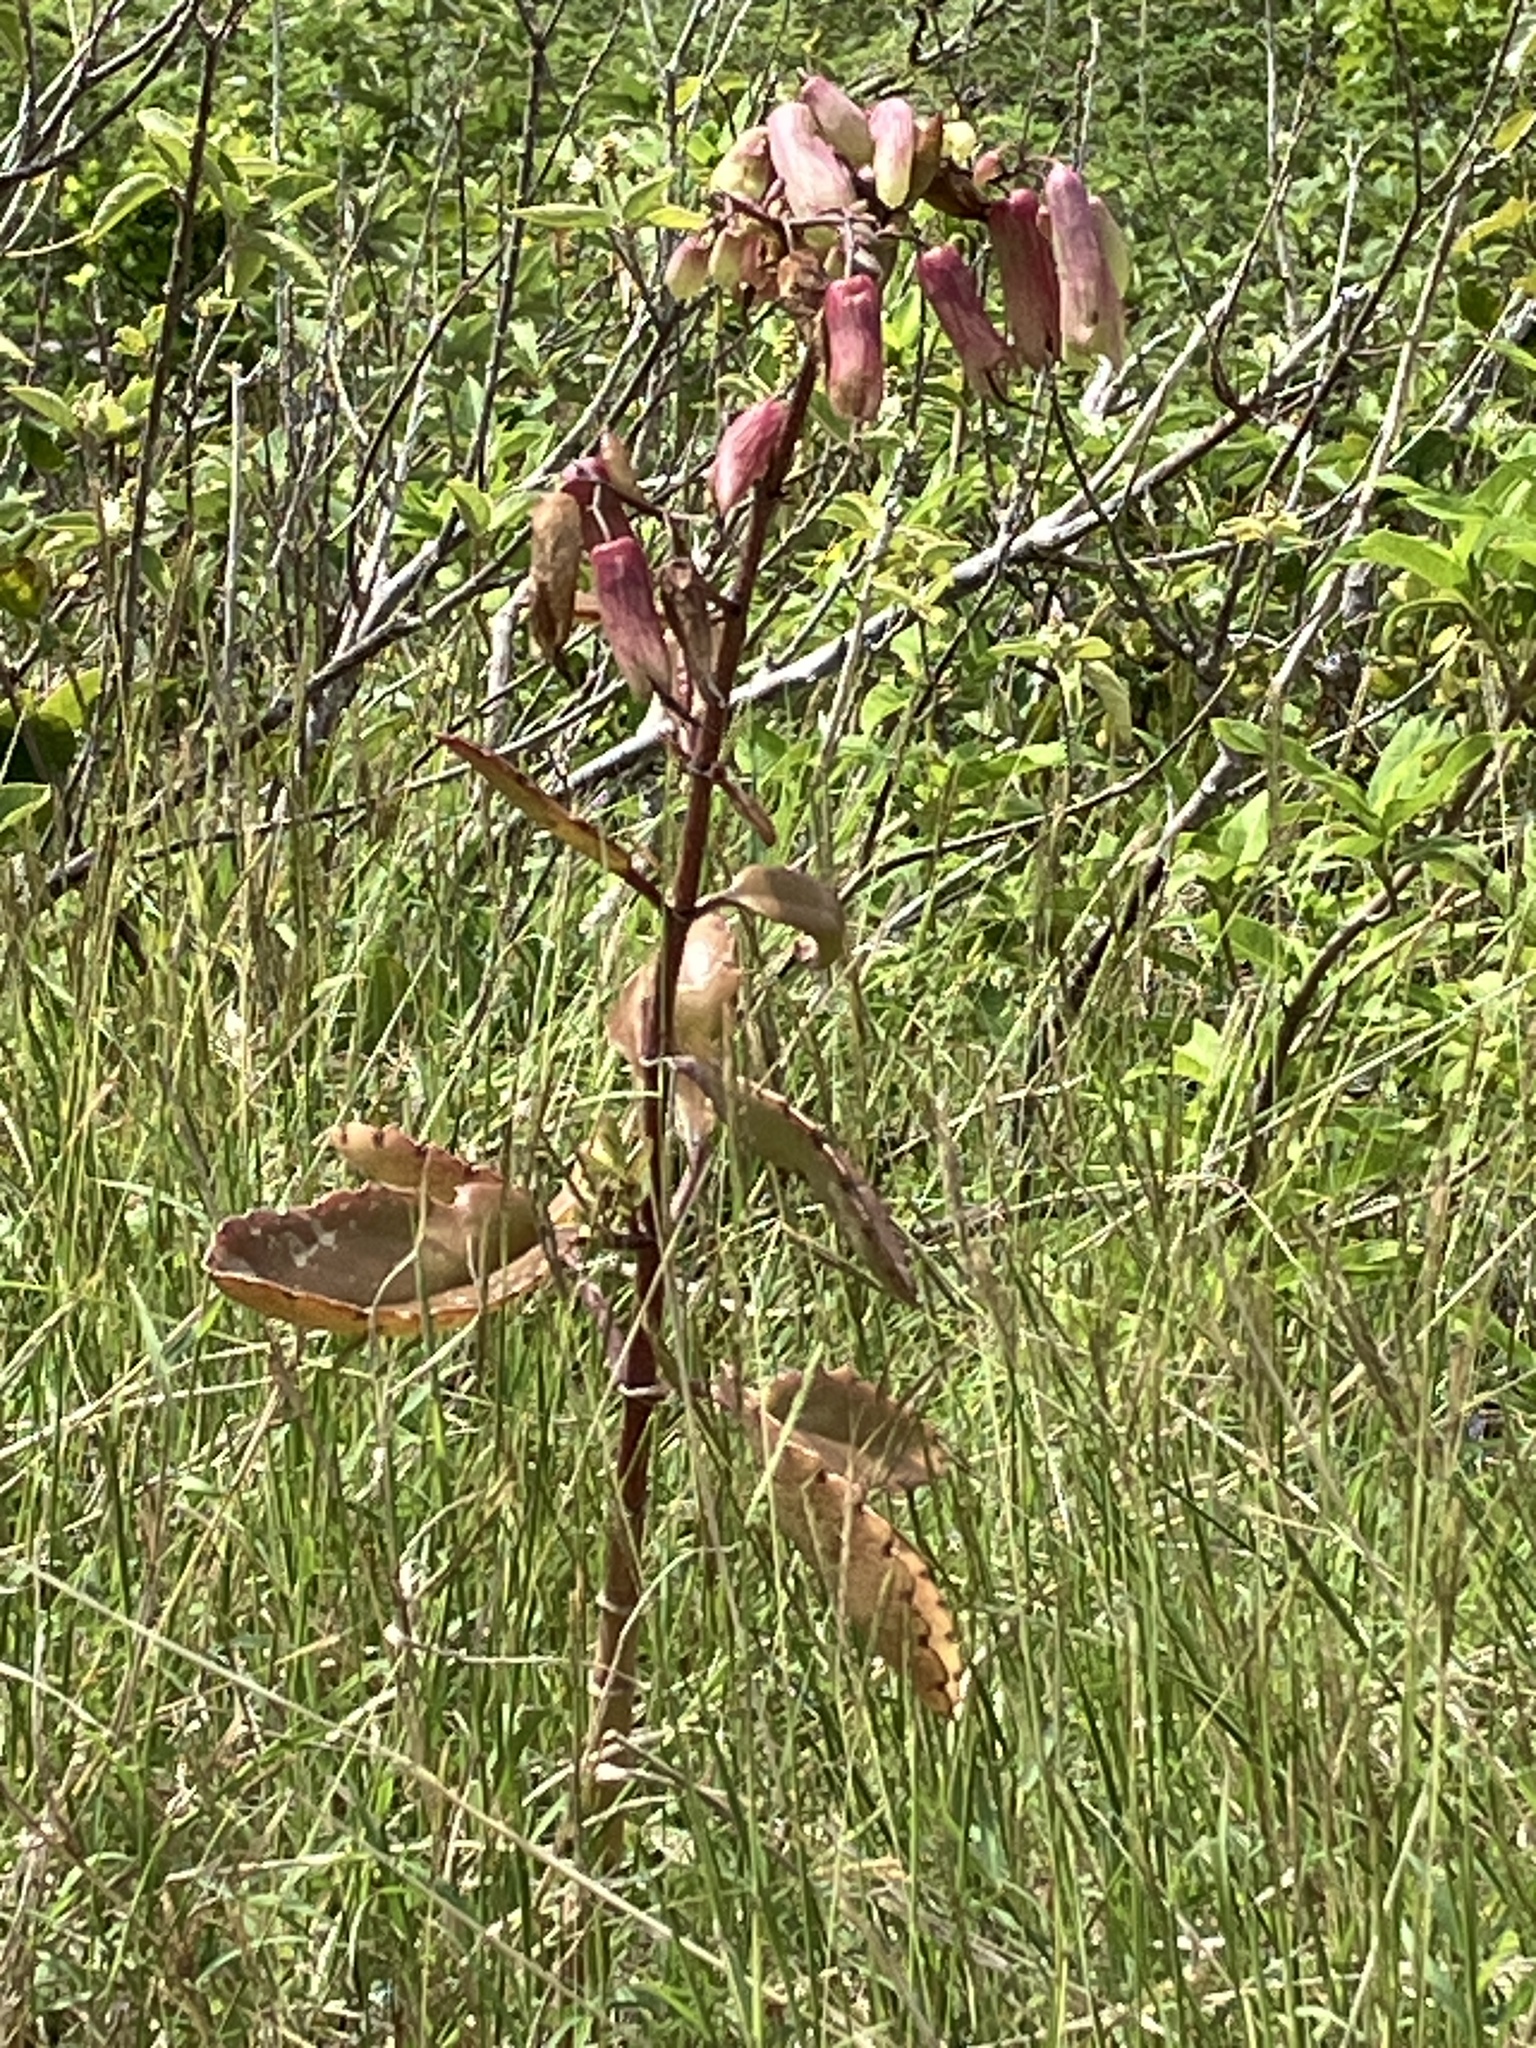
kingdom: Plantae
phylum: Tracheophyta
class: Magnoliopsida
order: Saxifragales
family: Crassulaceae
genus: Kalanchoe
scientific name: Kalanchoe pinnata
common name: Cathedral bells
